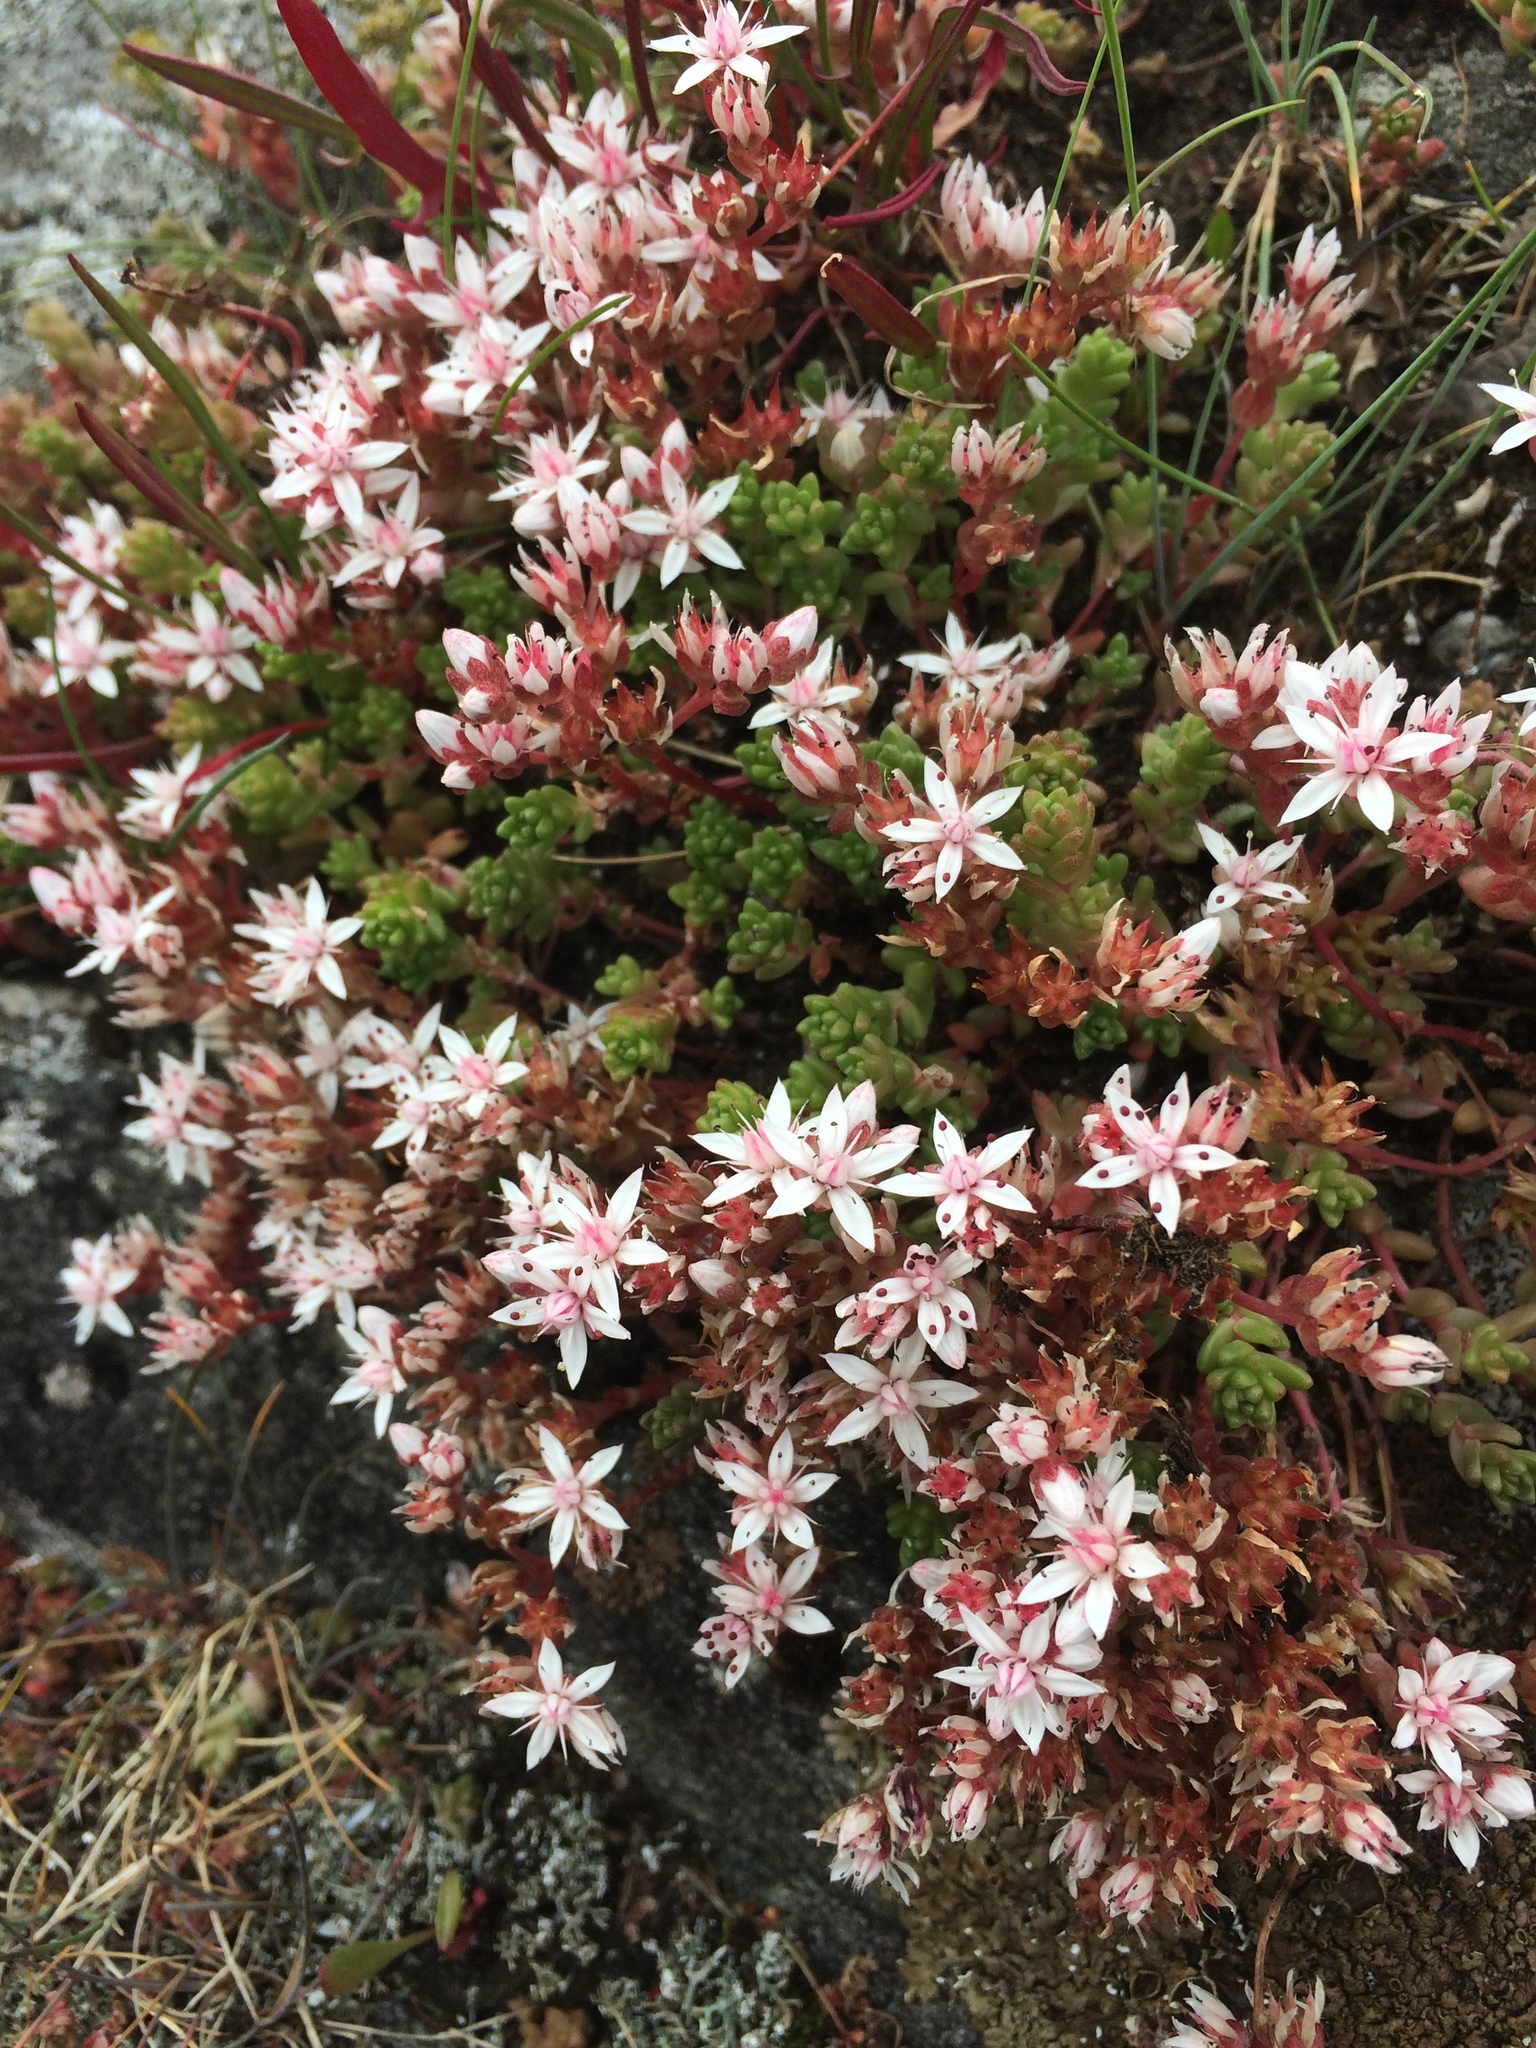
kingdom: Plantae
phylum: Tracheophyta
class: Magnoliopsida
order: Saxifragales
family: Crassulaceae
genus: Sedum
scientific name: Sedum anglicum
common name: English stonecrop
